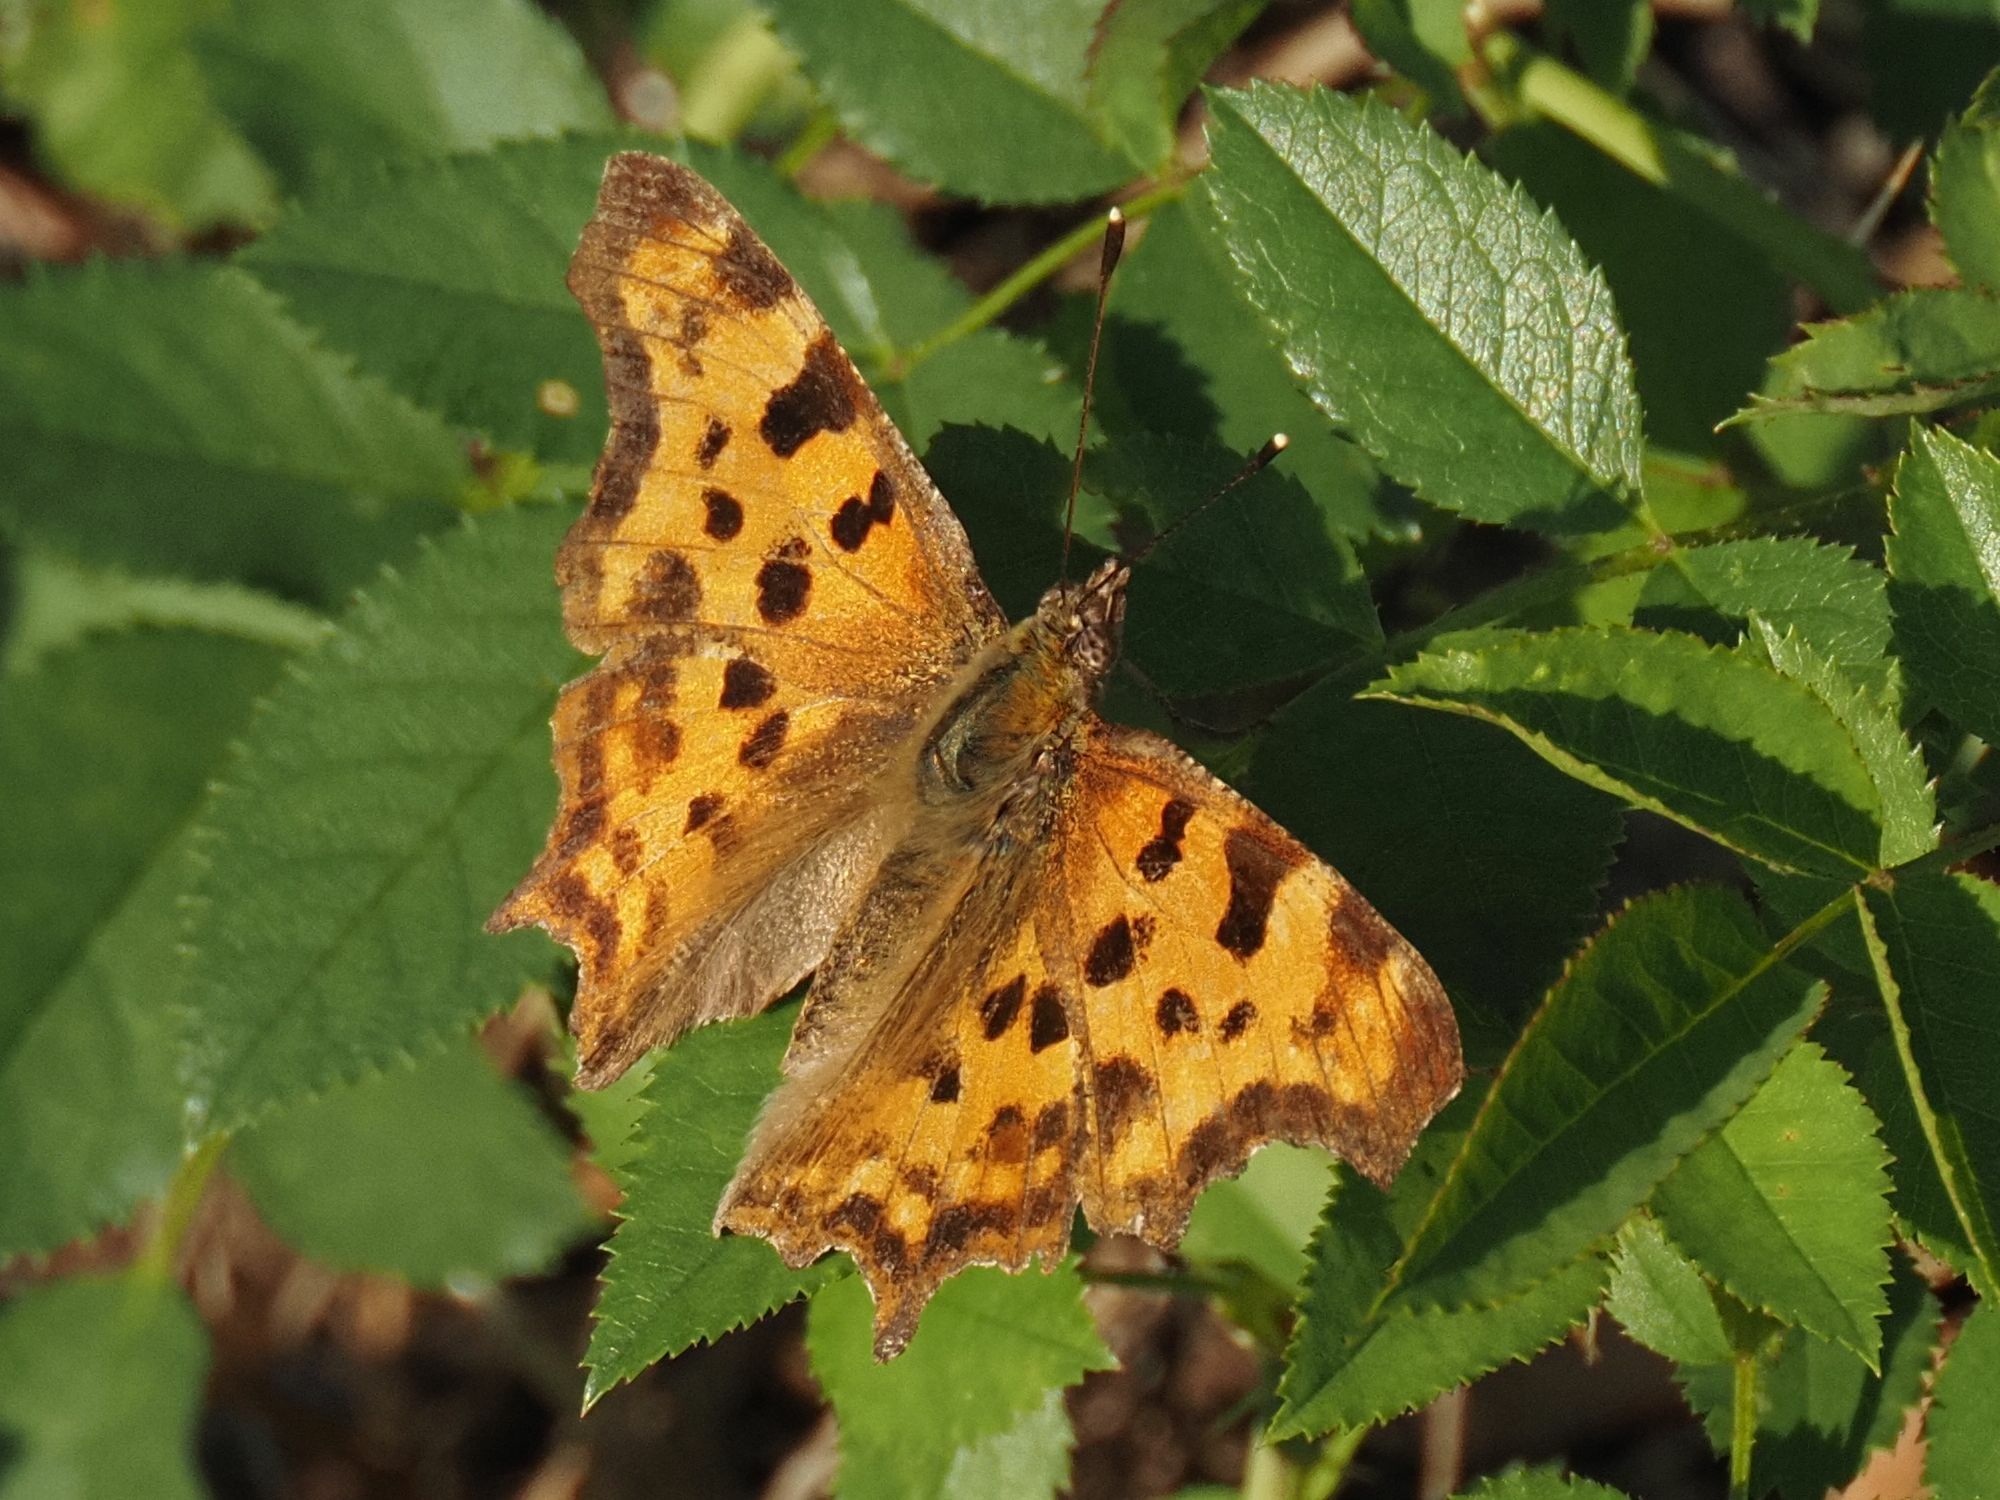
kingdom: Animalia
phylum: Arthropoda
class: Insecta
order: Lepidoptera
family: Nymphalidae
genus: Polygonia
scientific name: Polygonia c-album
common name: Comma
